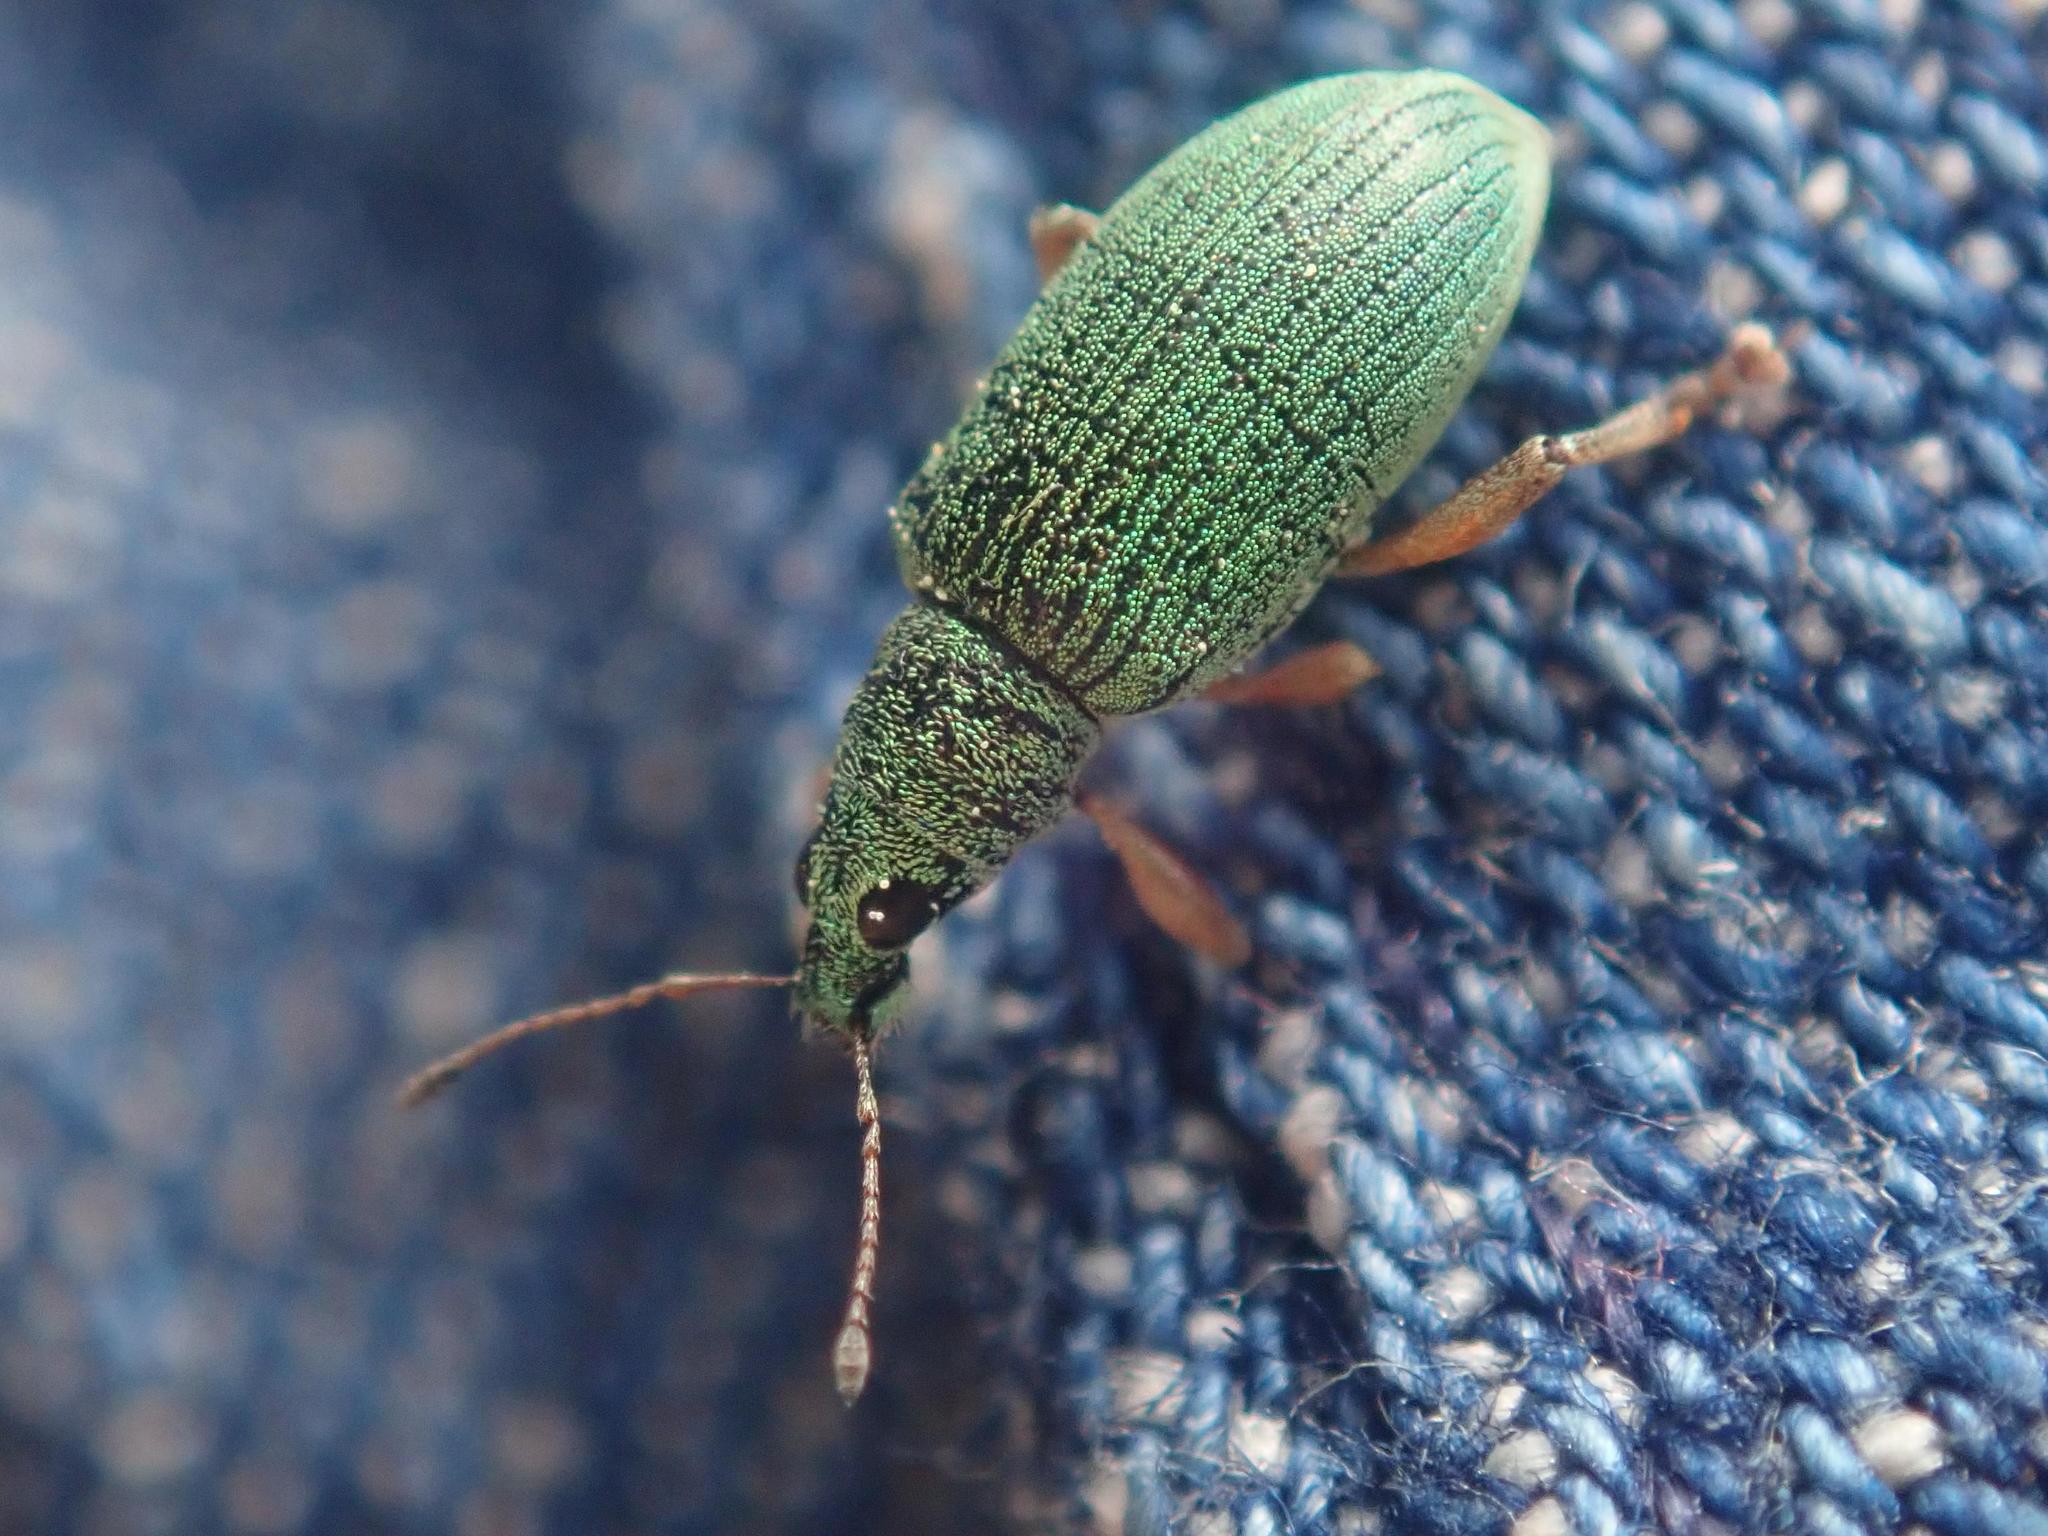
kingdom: Animalia
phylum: Arthropoda
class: Insecta
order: Coleoptera
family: Curculionidae
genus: Polydrusus
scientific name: Polydrusus formosus
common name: Weevil
